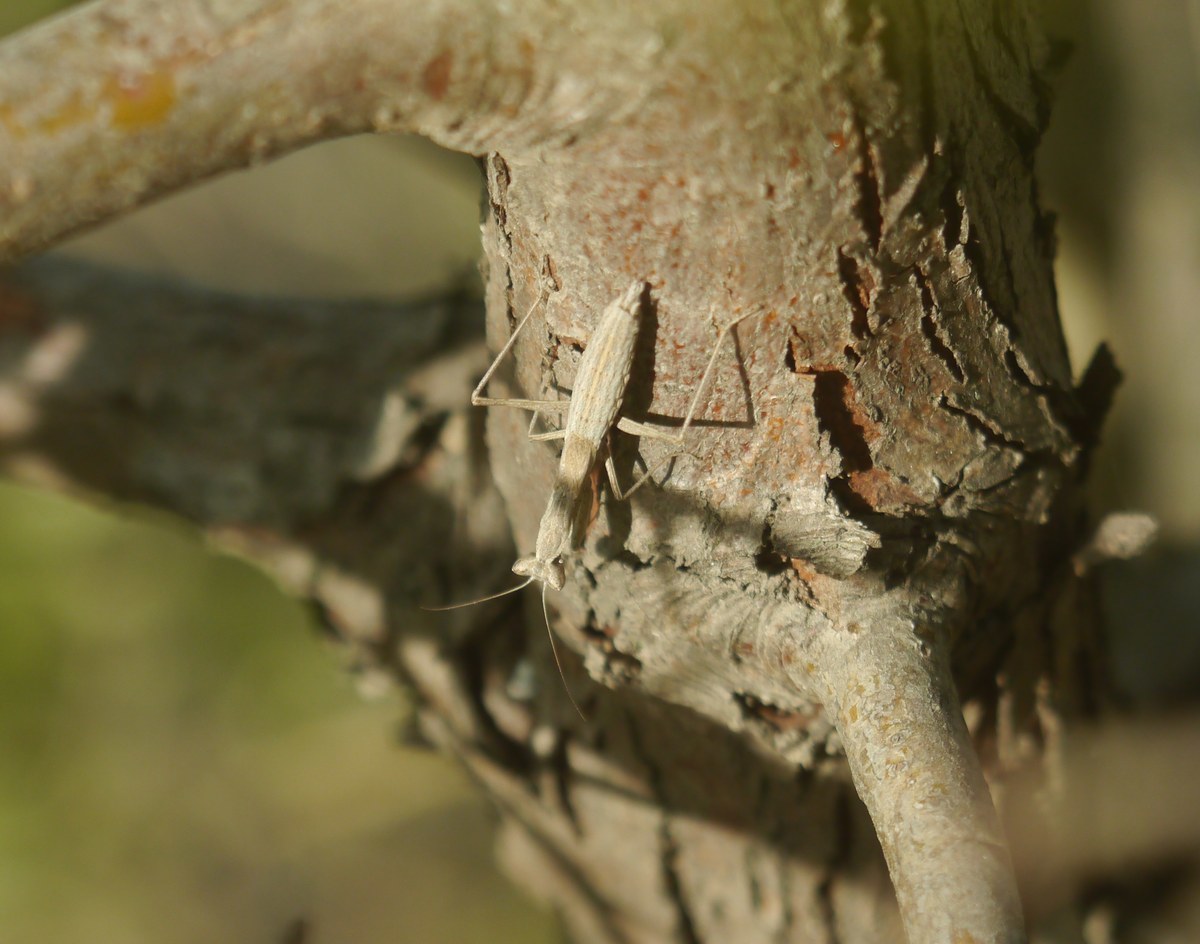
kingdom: Animalia
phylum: Arthropoda
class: Insecta
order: Mantodea
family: Amelidae
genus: Ameles
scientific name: Ameles heldreichi
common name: Heldreich's dwarf mantis
